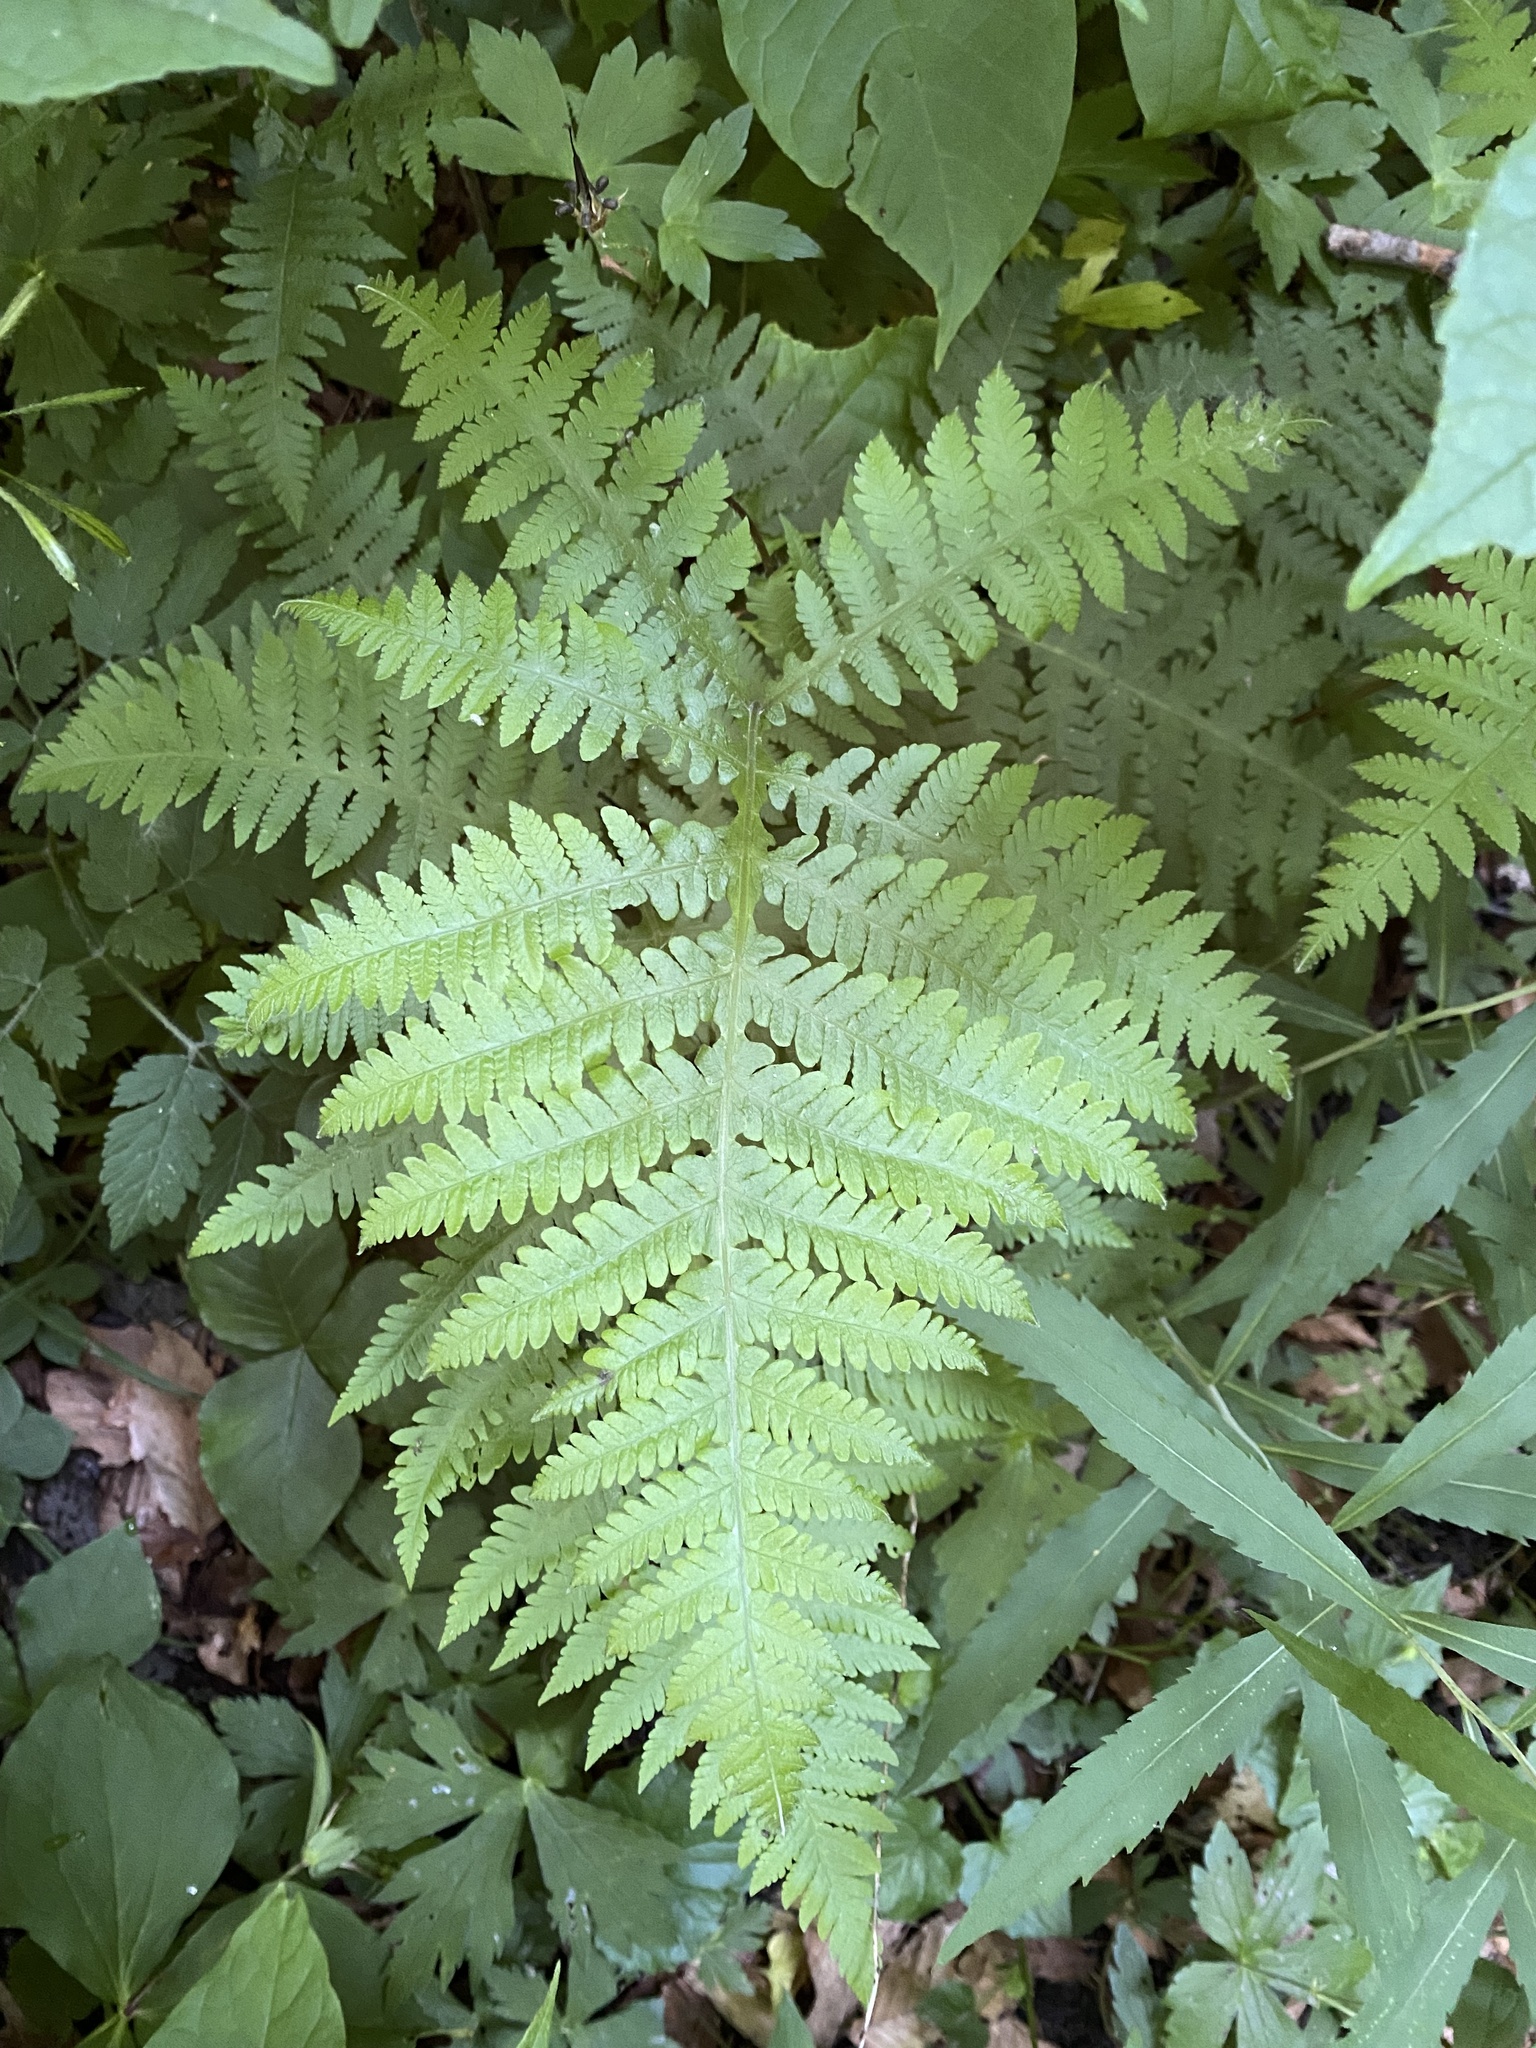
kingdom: Plantae
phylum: Tracheophyta
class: Polypodiopsida
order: Polypodiales
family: Thelypteridaceae
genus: Phegopteris
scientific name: Phegopteris hexagonoptera
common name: Broad beech fern
